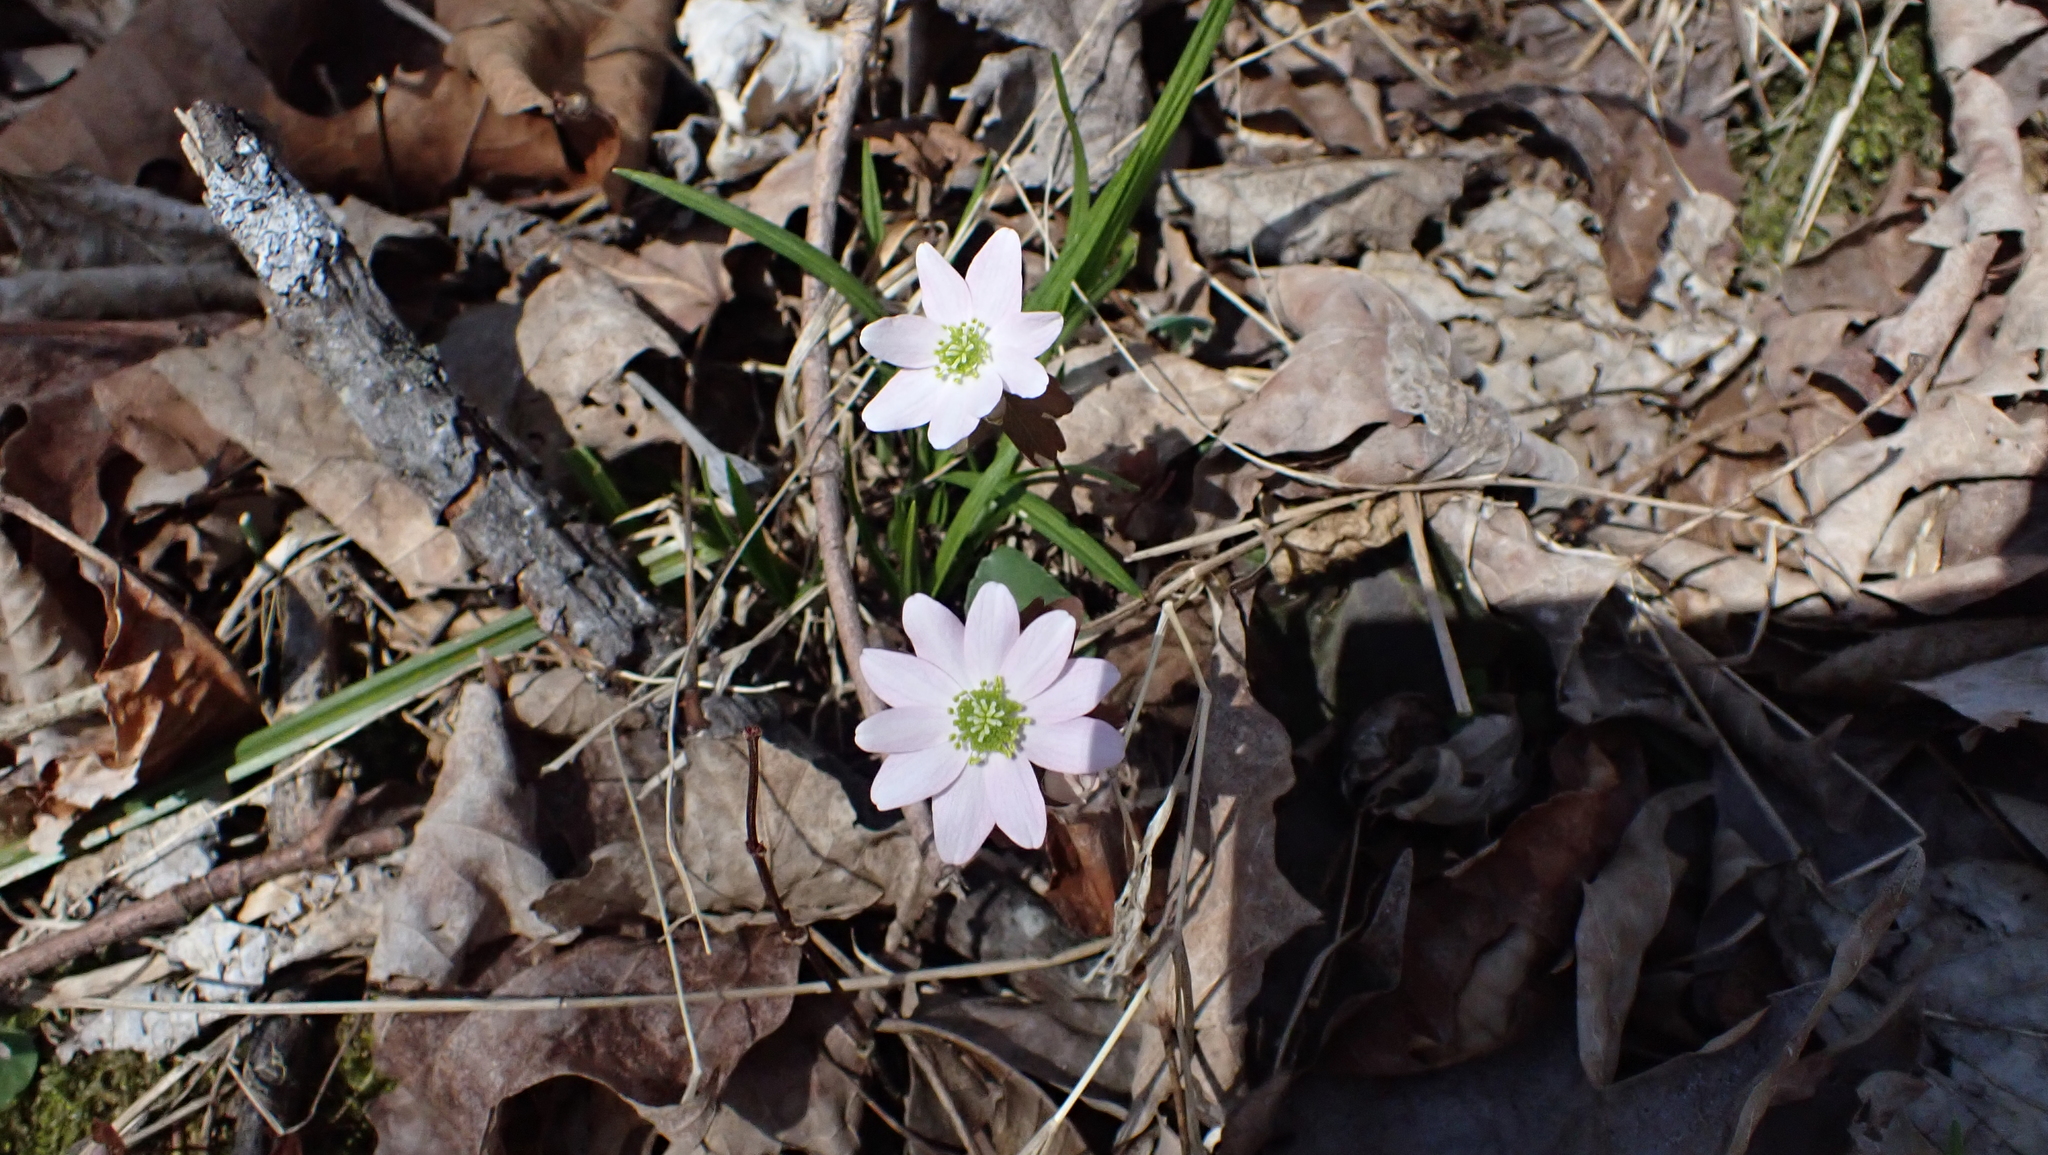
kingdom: Plantae
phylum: Tracheophyta
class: Magnoliopsida
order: Ranunculales
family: Ranunculaceae
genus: Thalictrum
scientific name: Thalictrum thalictroides
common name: Rue-anemone
